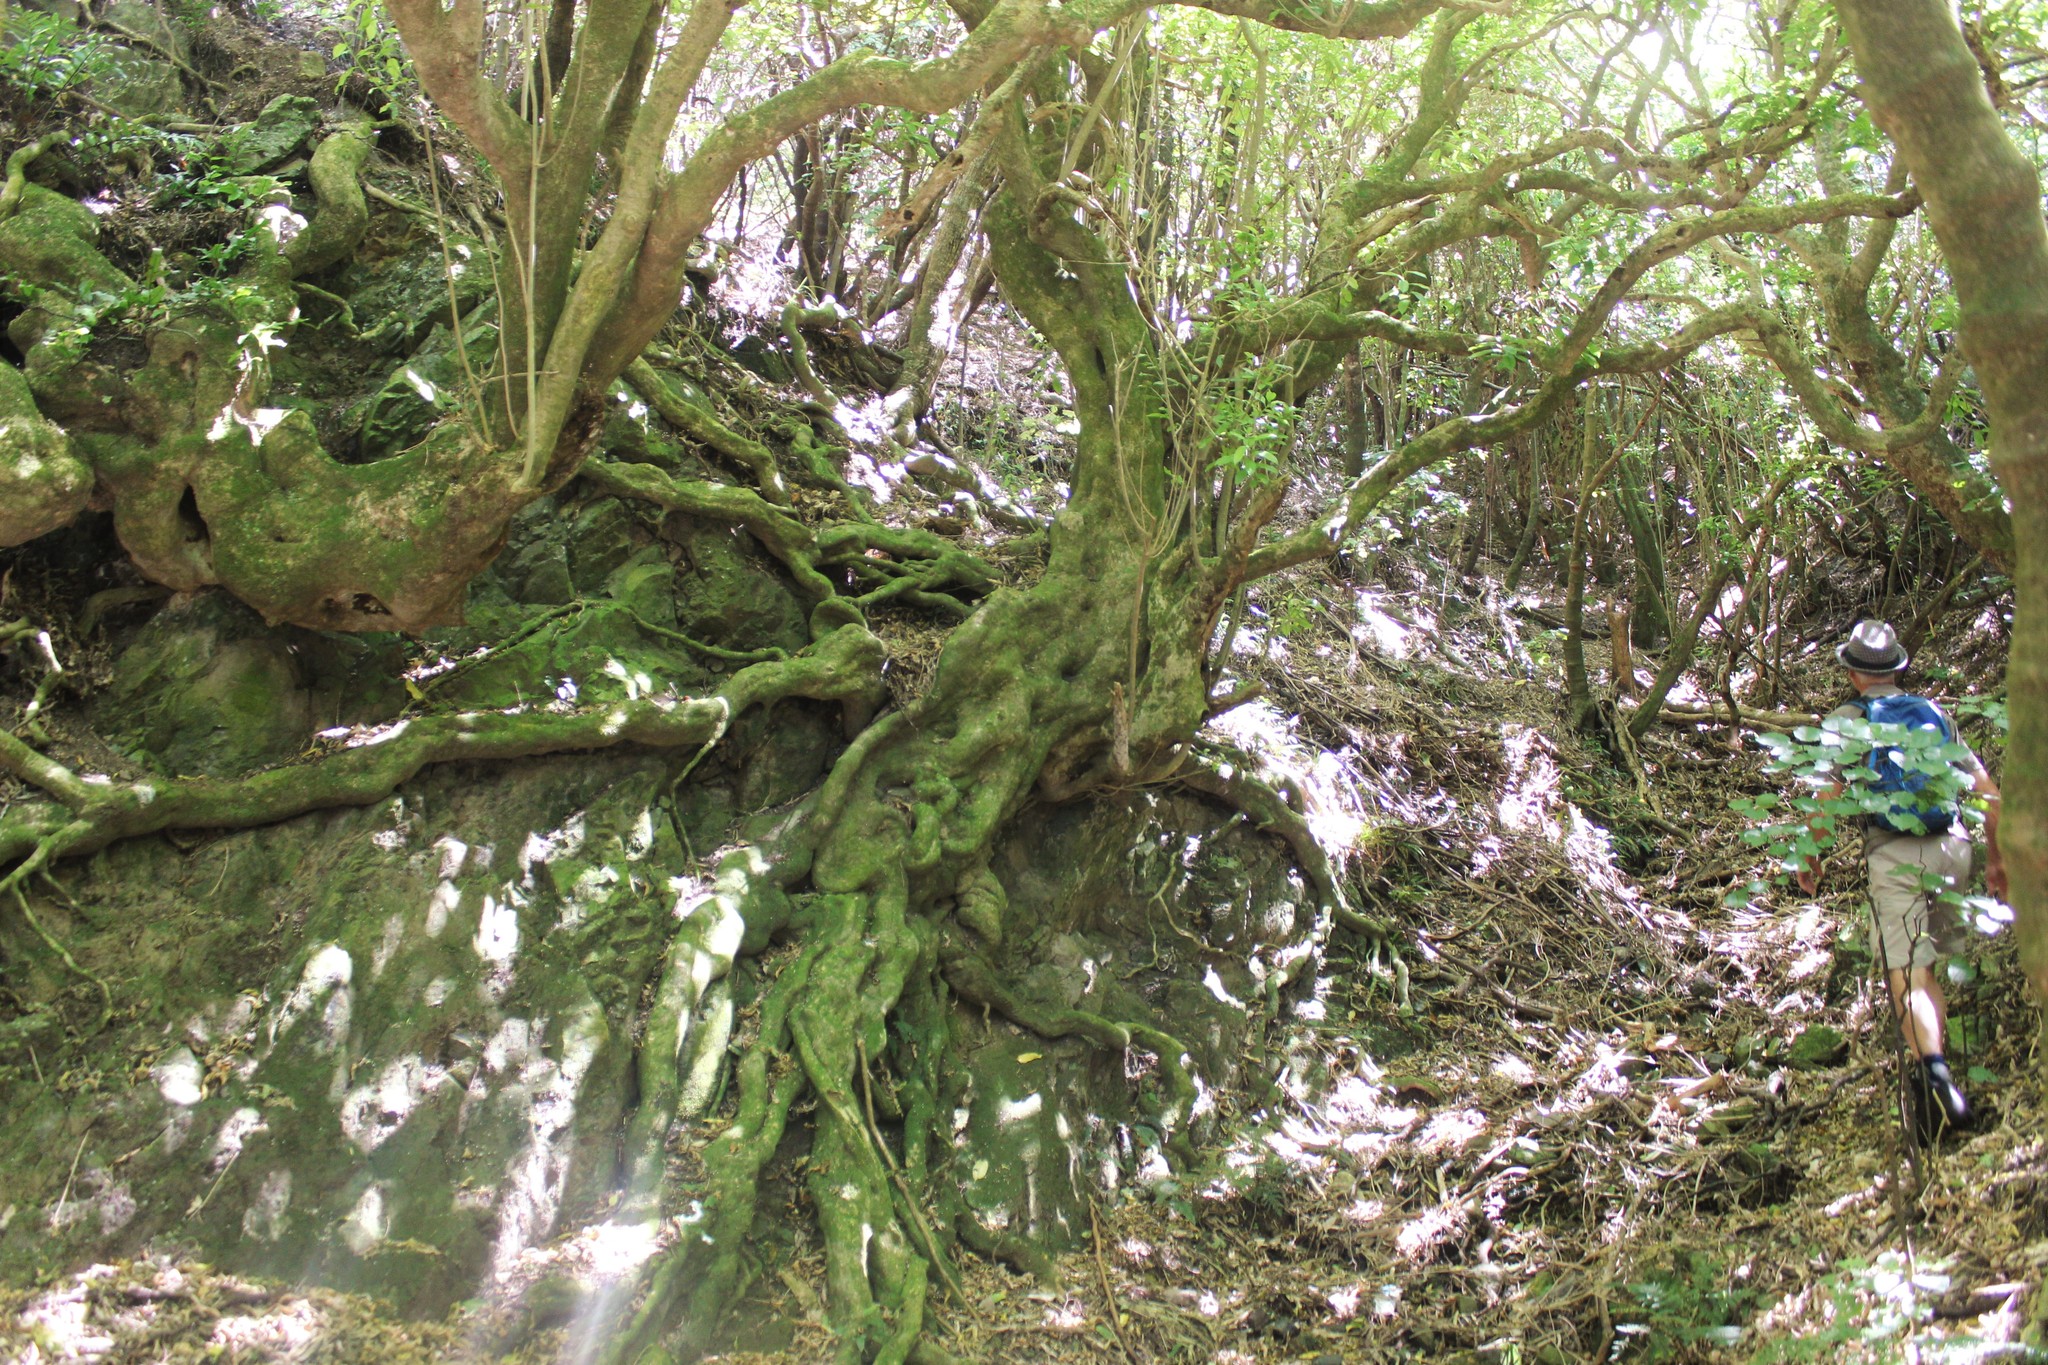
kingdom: Plantae
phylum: Tracheophyta
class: Magnoliopsida
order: Malpighiales
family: Violaceae
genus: Melicytus
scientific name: Melicytus ramiflorus
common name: Mahoe
